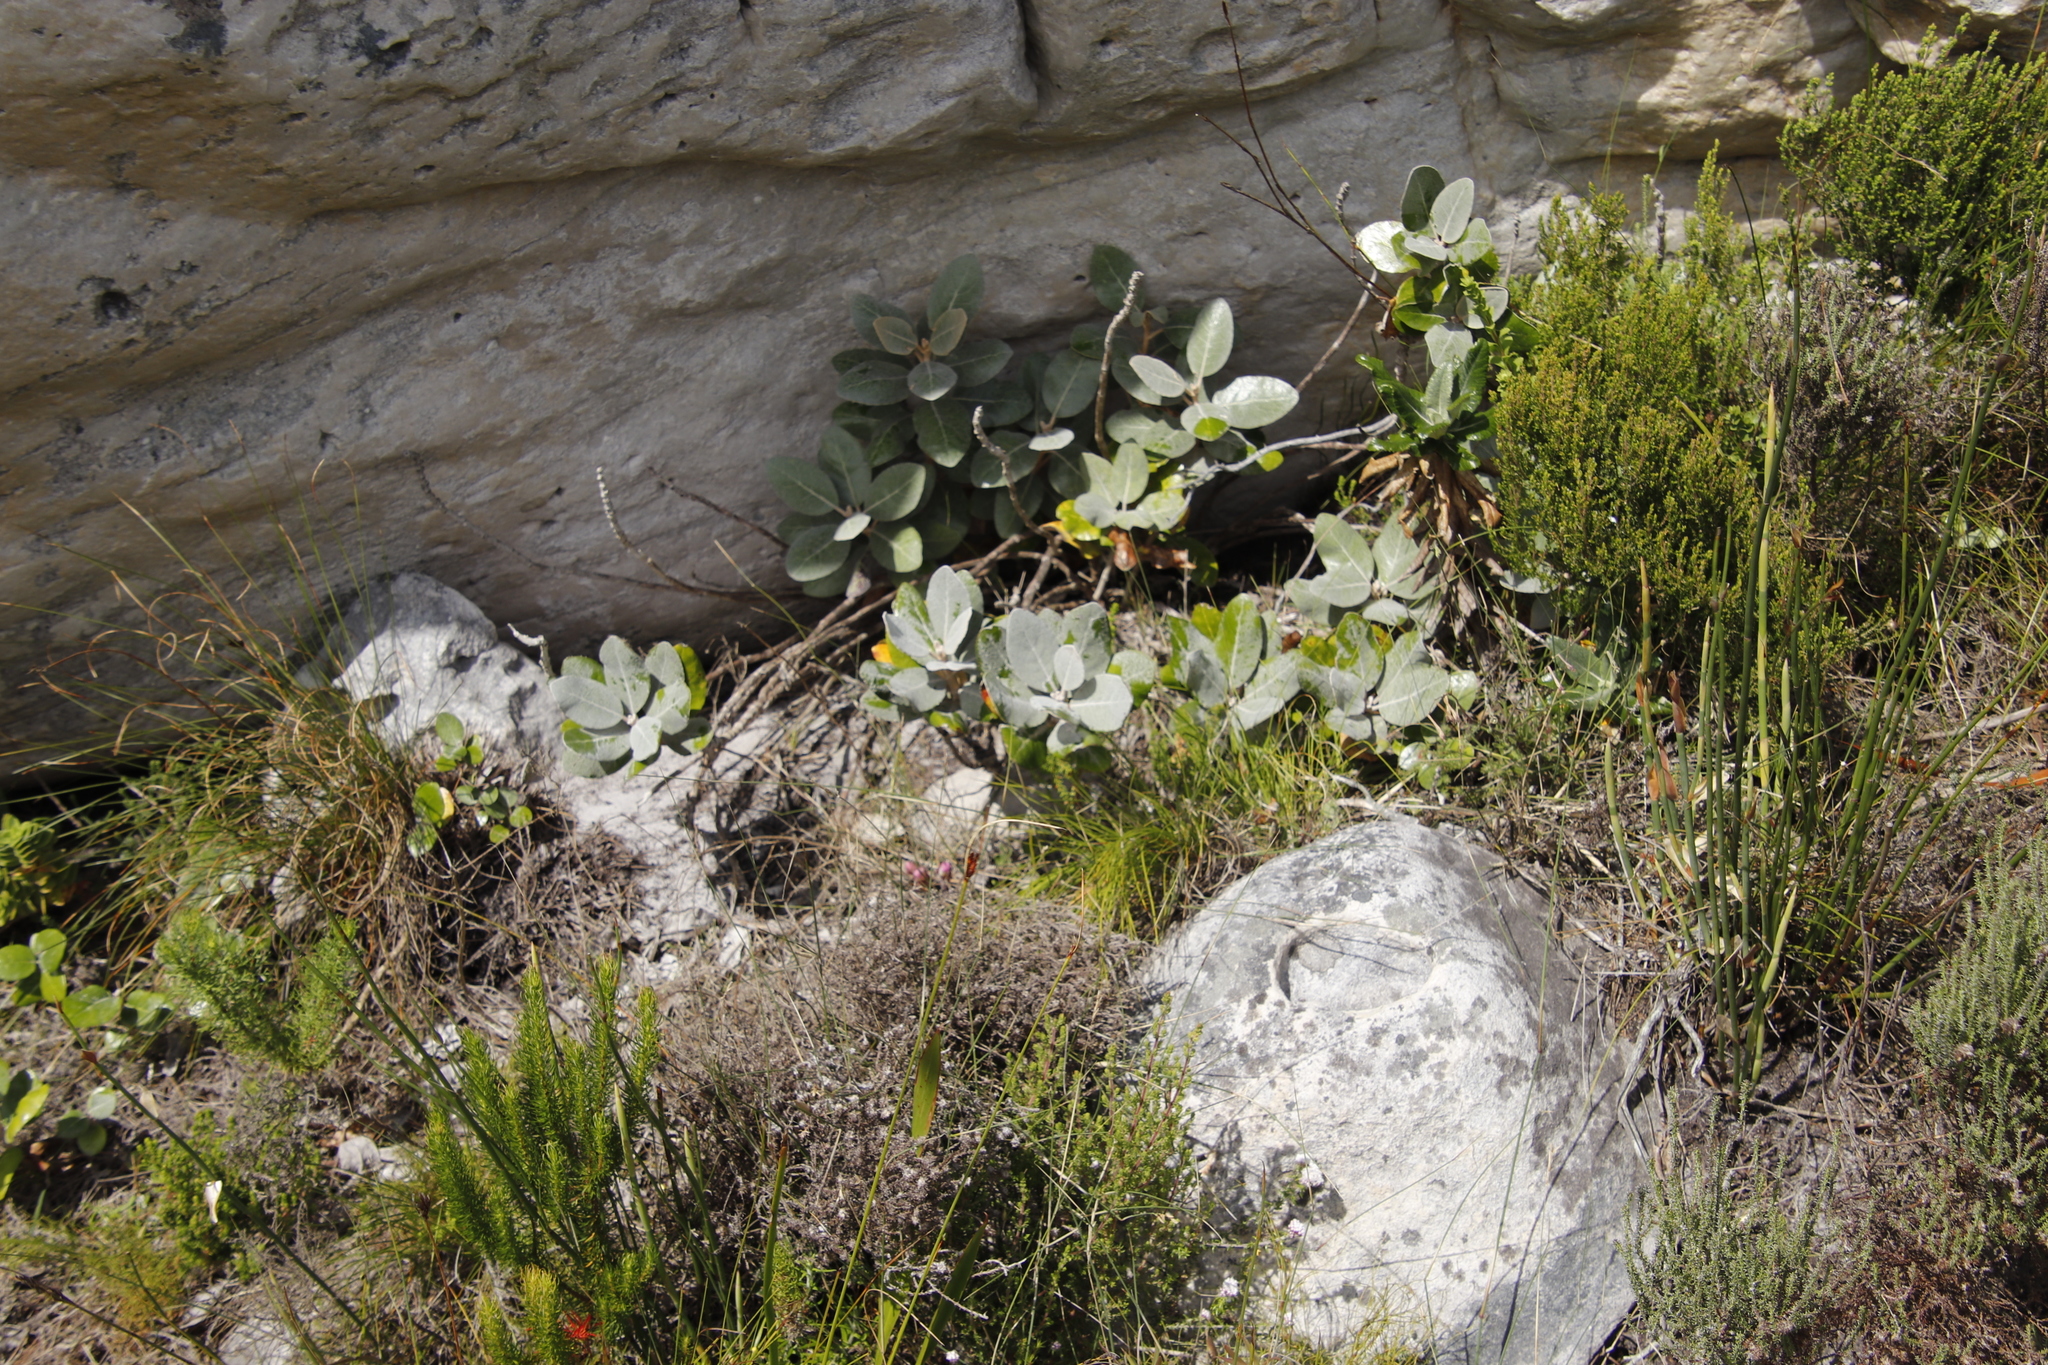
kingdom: Plantae
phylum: Tracheophyta
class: Magnoliopsida
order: Asterales
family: Asteraceae
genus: Capelio
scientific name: Capelio tabularis
